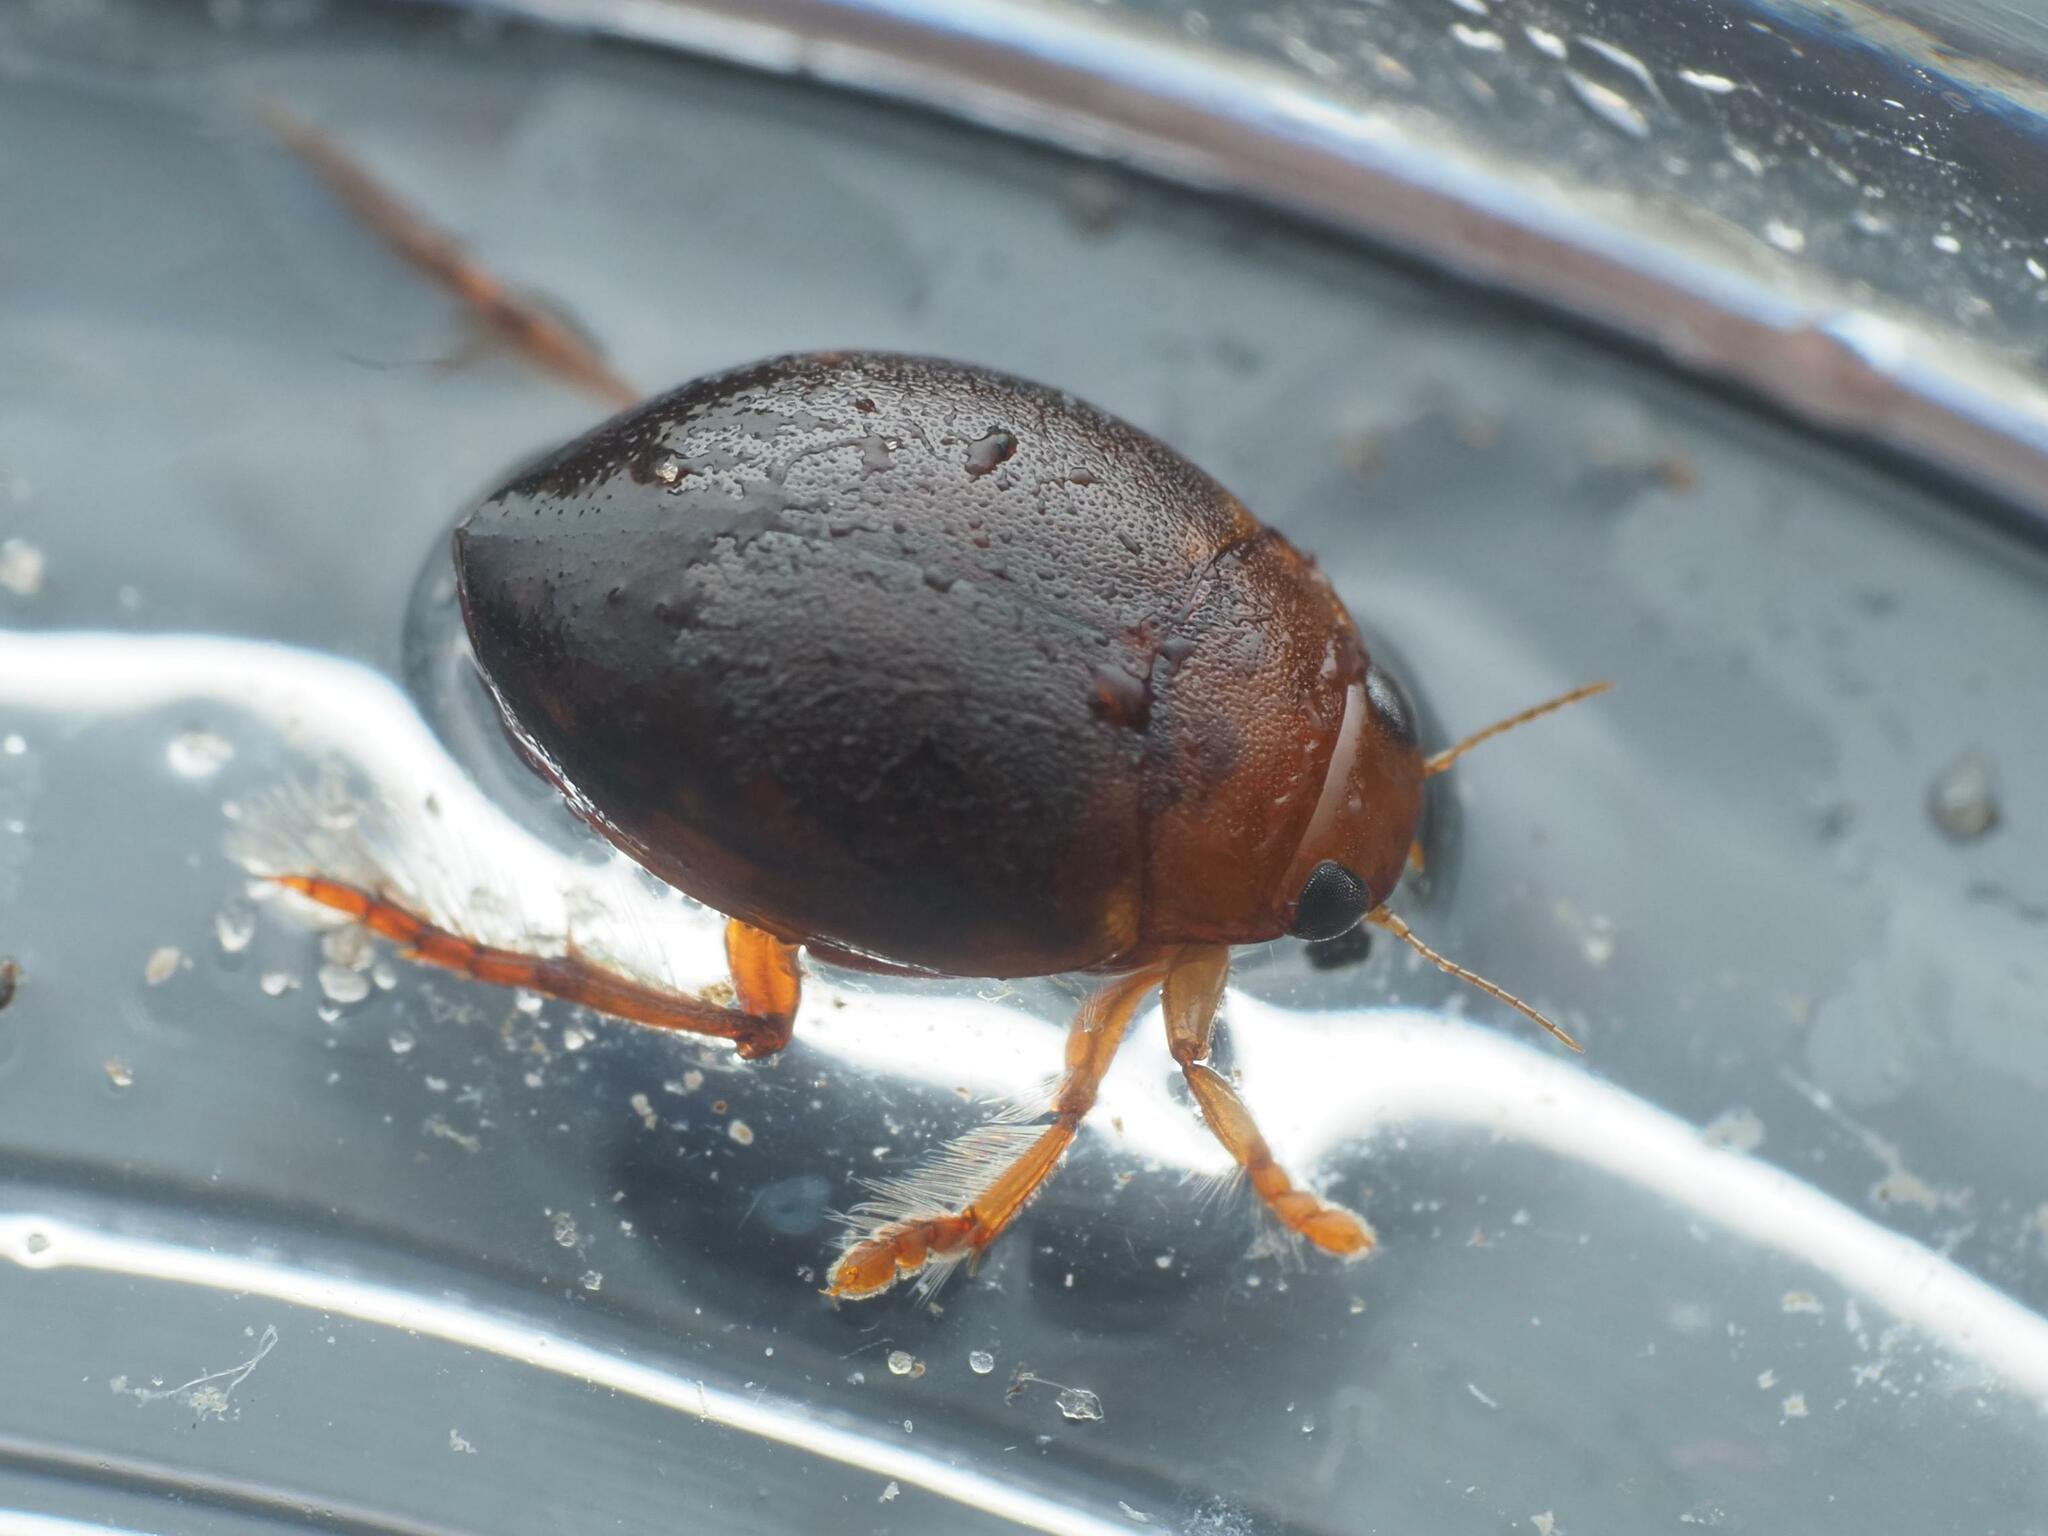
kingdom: Animalia
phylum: Arthropoda
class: Insecta
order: Coleoptera
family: Dytiscidae
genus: Hyphydrus
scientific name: Hyphydrus ovatus
